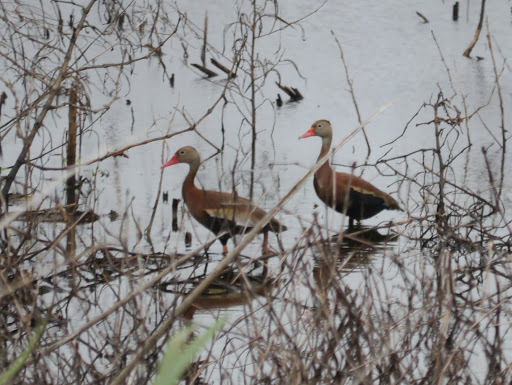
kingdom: Animalia
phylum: Chordata
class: Aves
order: Anseriformes
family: Anatidae
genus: Dendrocygna
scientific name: Dendrocygna autumnalis
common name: Black-bellied whistling duck
